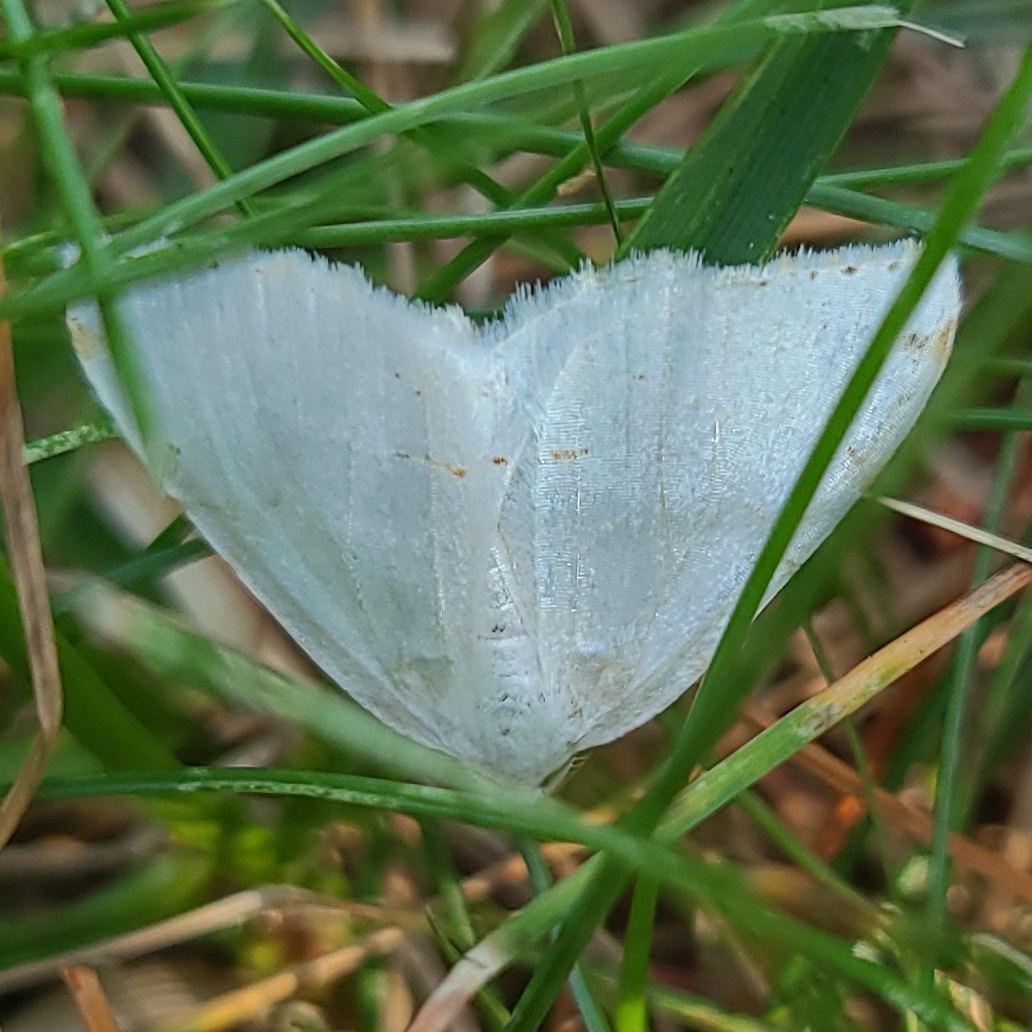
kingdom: Animalia
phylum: Arthropoda
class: Insecta
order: Lepidoptera
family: Geometridae
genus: Macaria
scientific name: Macaria pustularia
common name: Lesser maple spanworm moth
